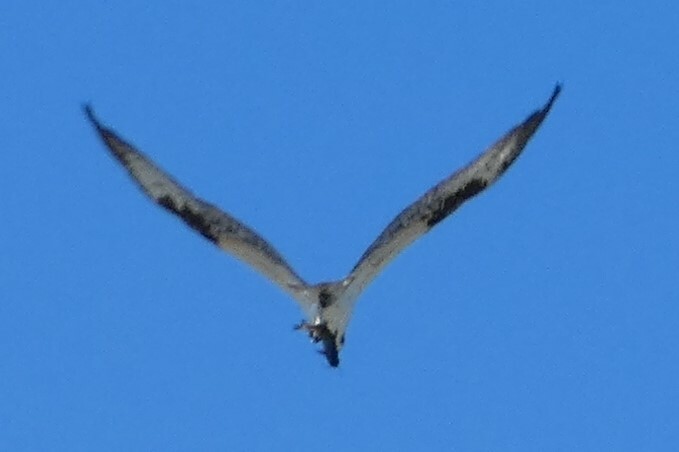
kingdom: Animalia
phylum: Chordata
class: Aves
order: Accipitriformes
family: Pandionidae
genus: Pandion
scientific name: Pandion haliaetus
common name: Osprey
